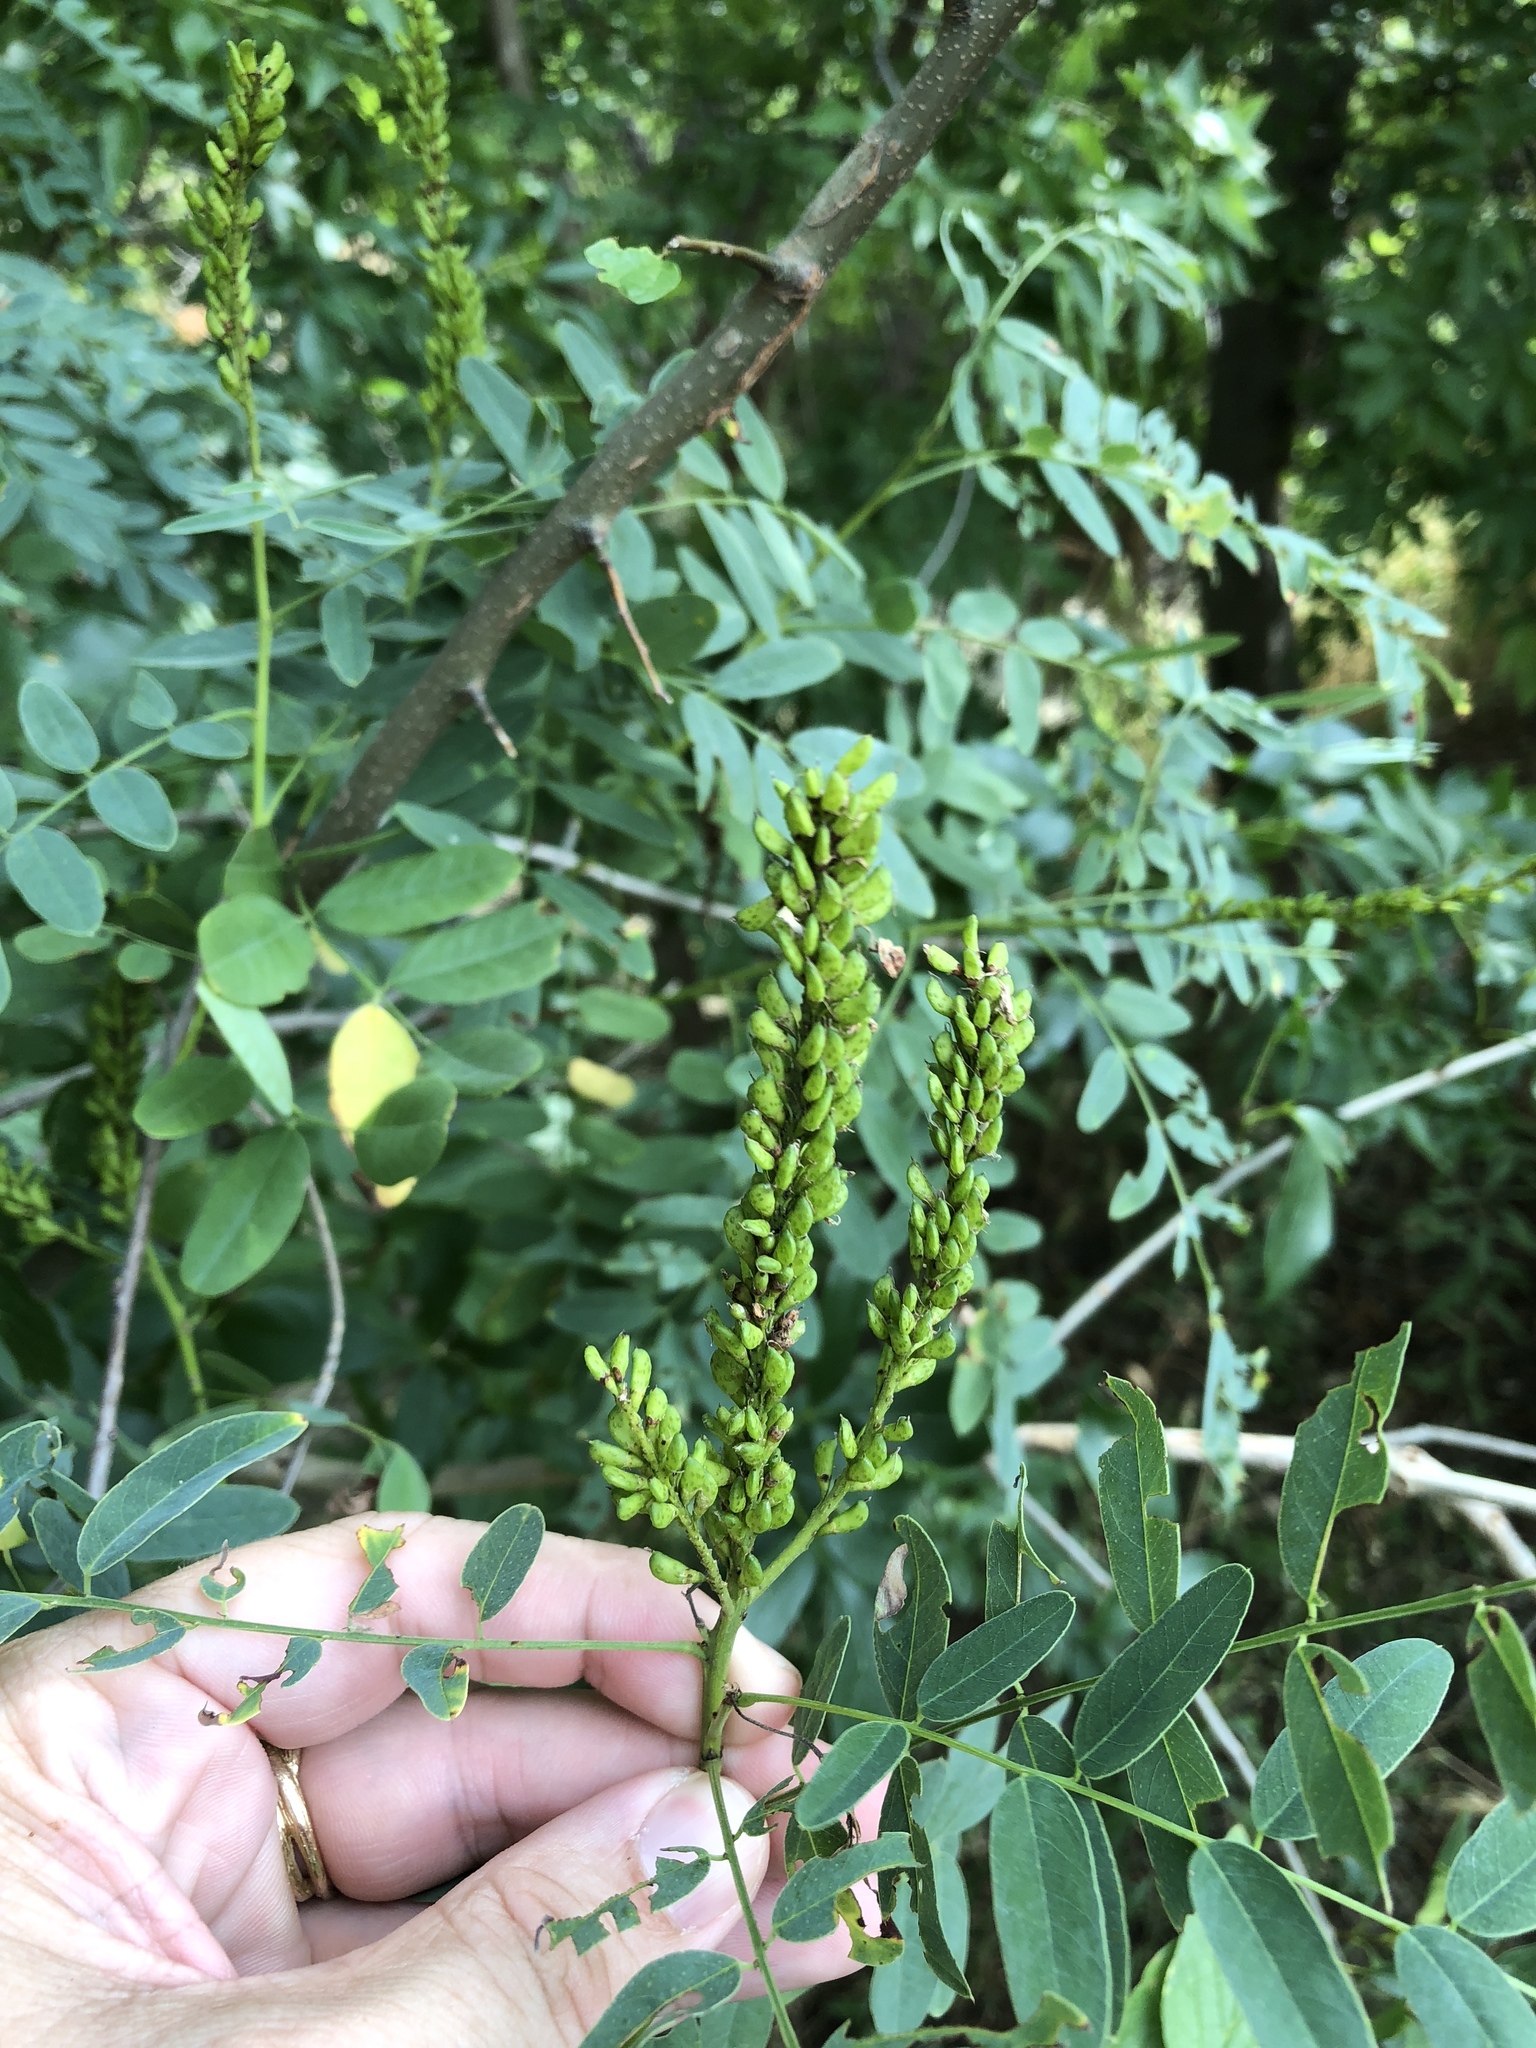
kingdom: Plantae
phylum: Tracheophyta
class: Magnoliopsida
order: Fabales
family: Fabaceae
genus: Amorpha
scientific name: Amorpha fruticosa
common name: False indigo
